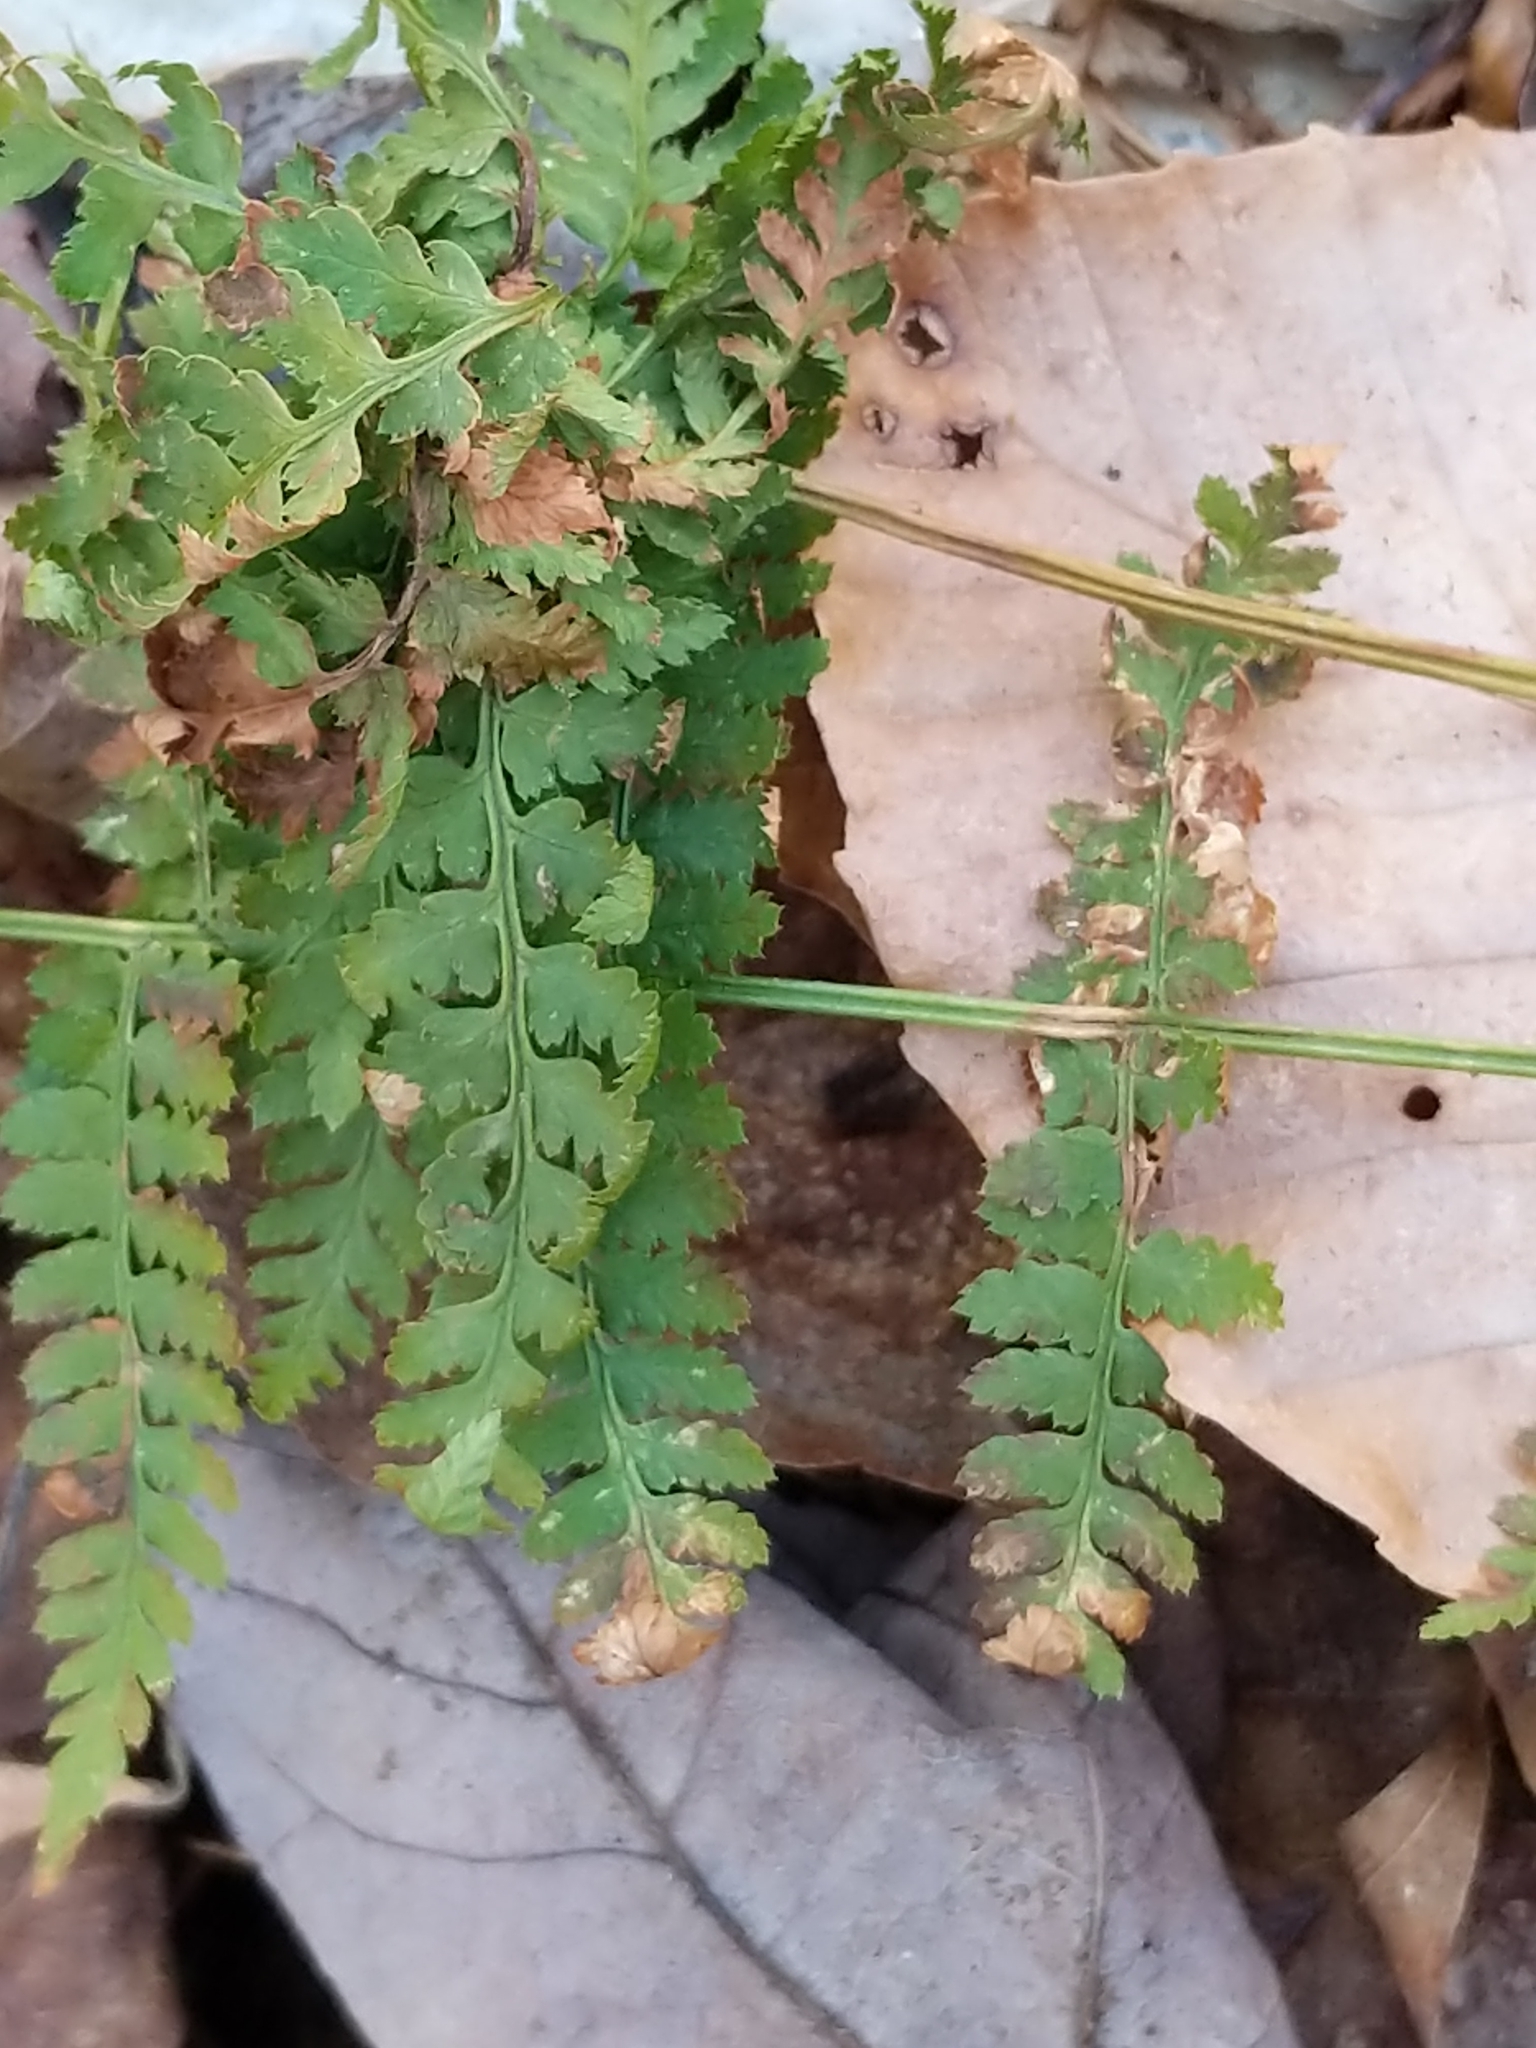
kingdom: Plantae
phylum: Tracheophyta
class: Polypodiopsida
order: Polypodiales
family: Dryopteridaceae
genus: Dryopteris
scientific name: Dryopteris intermedia
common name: Evergreen wood fern
